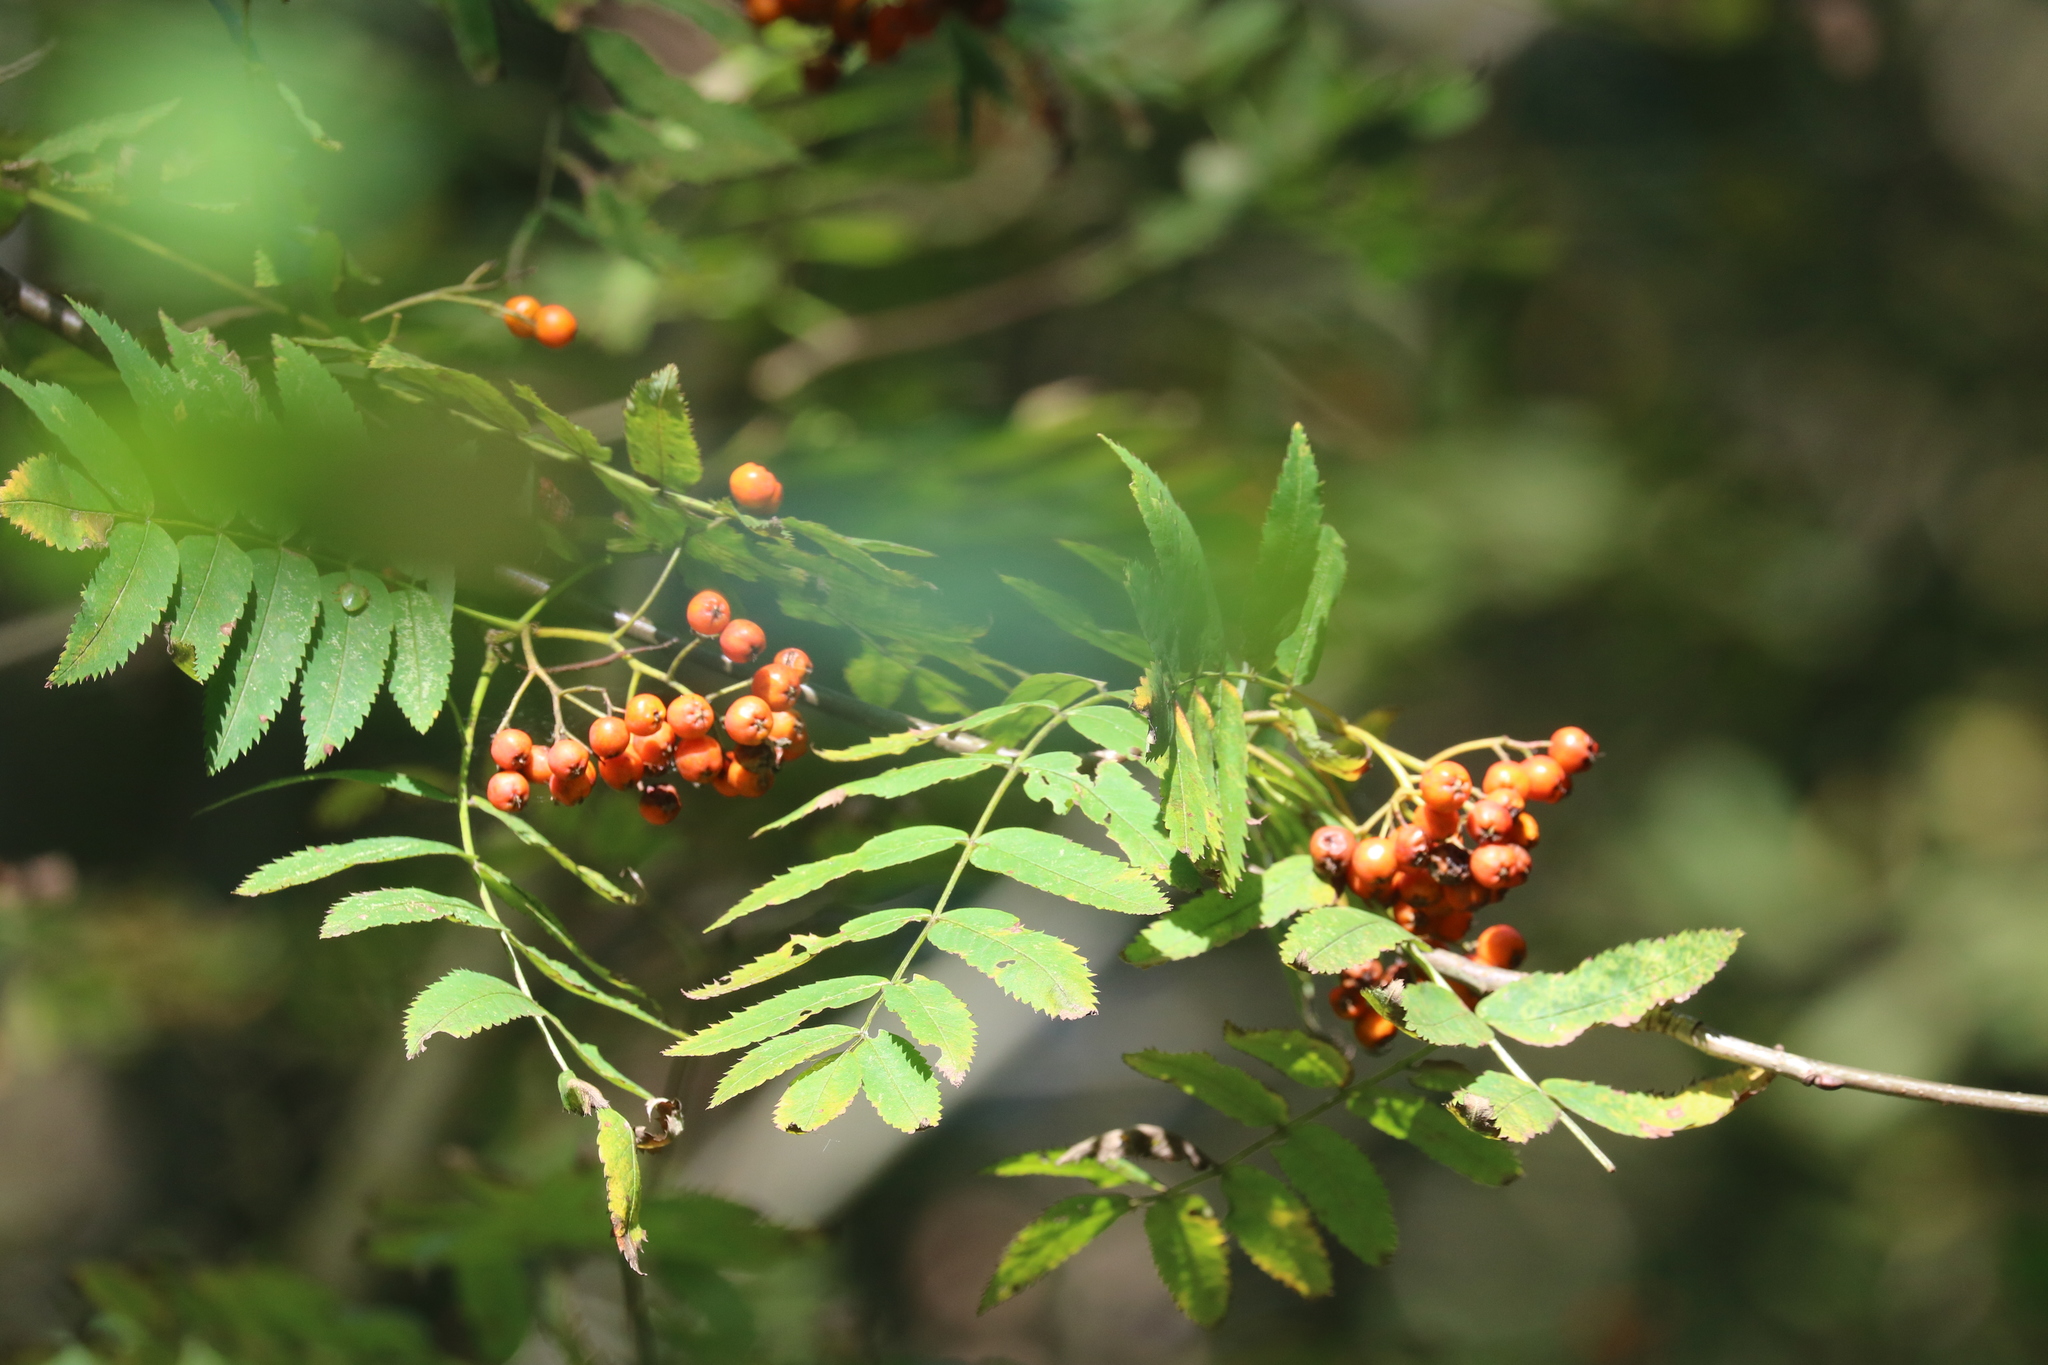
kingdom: Plantae
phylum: Tracheophyta
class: Magnoliopsida
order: Rosales
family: Rosaceae
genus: Sorbus
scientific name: Sorbus aucuparia
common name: Rowan
